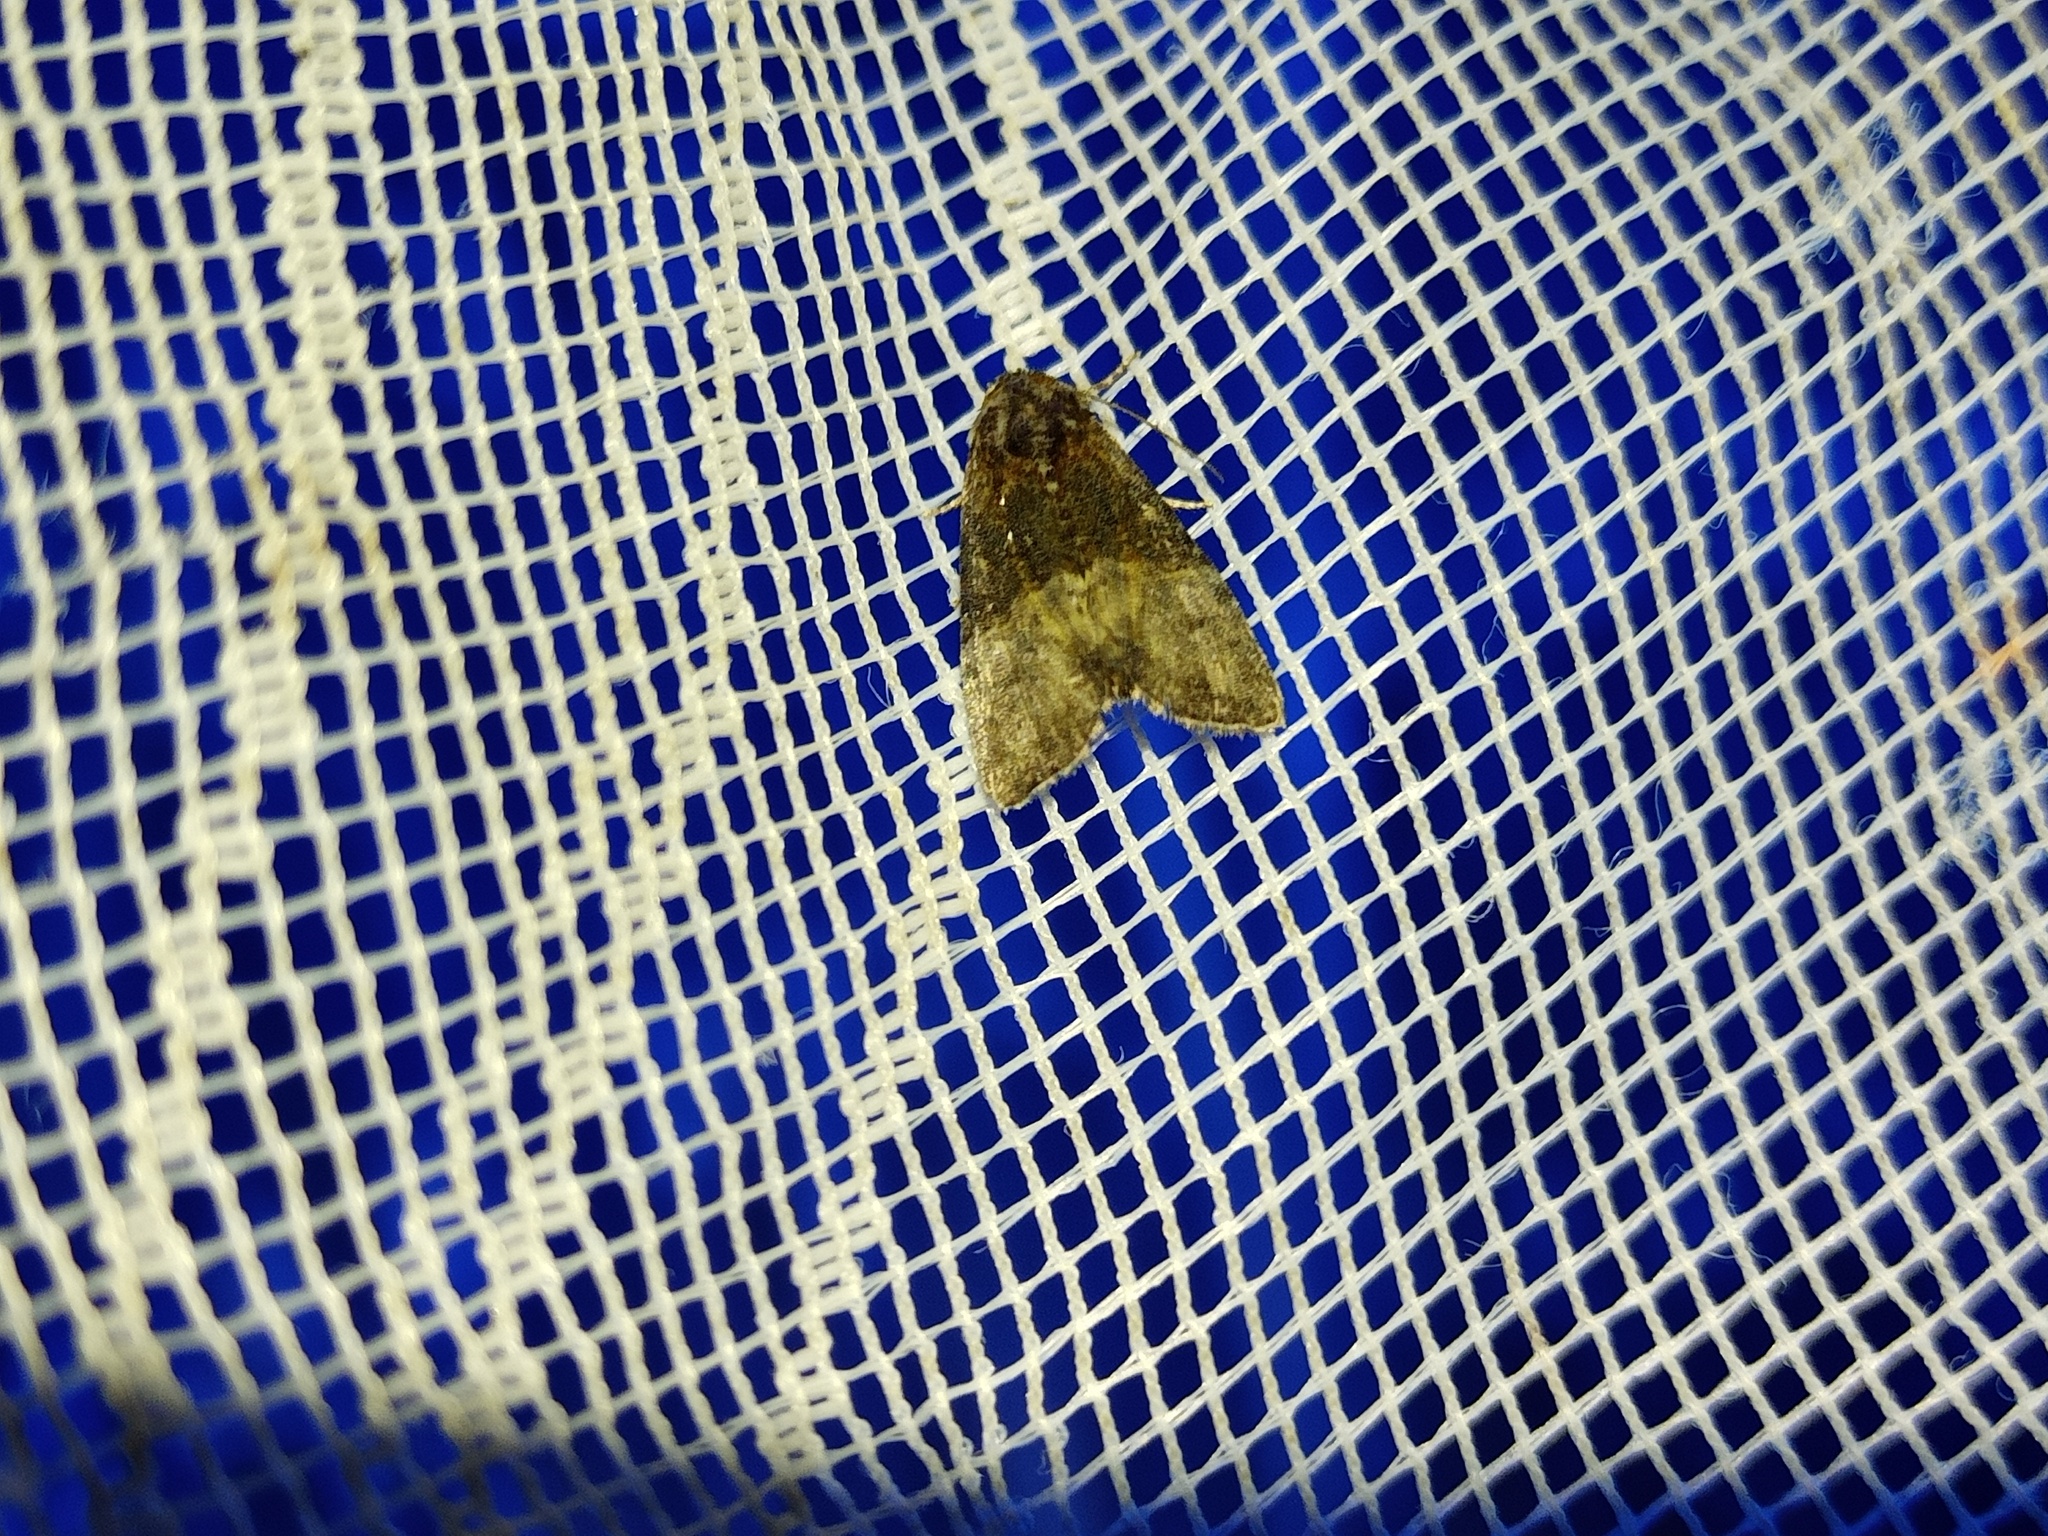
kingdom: Animalia
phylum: Arthropoda
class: Insecta
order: Lepidoptera
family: Noctuidae
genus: Mesoligia
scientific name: Mesoligia furuncula
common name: Cloaked minor
